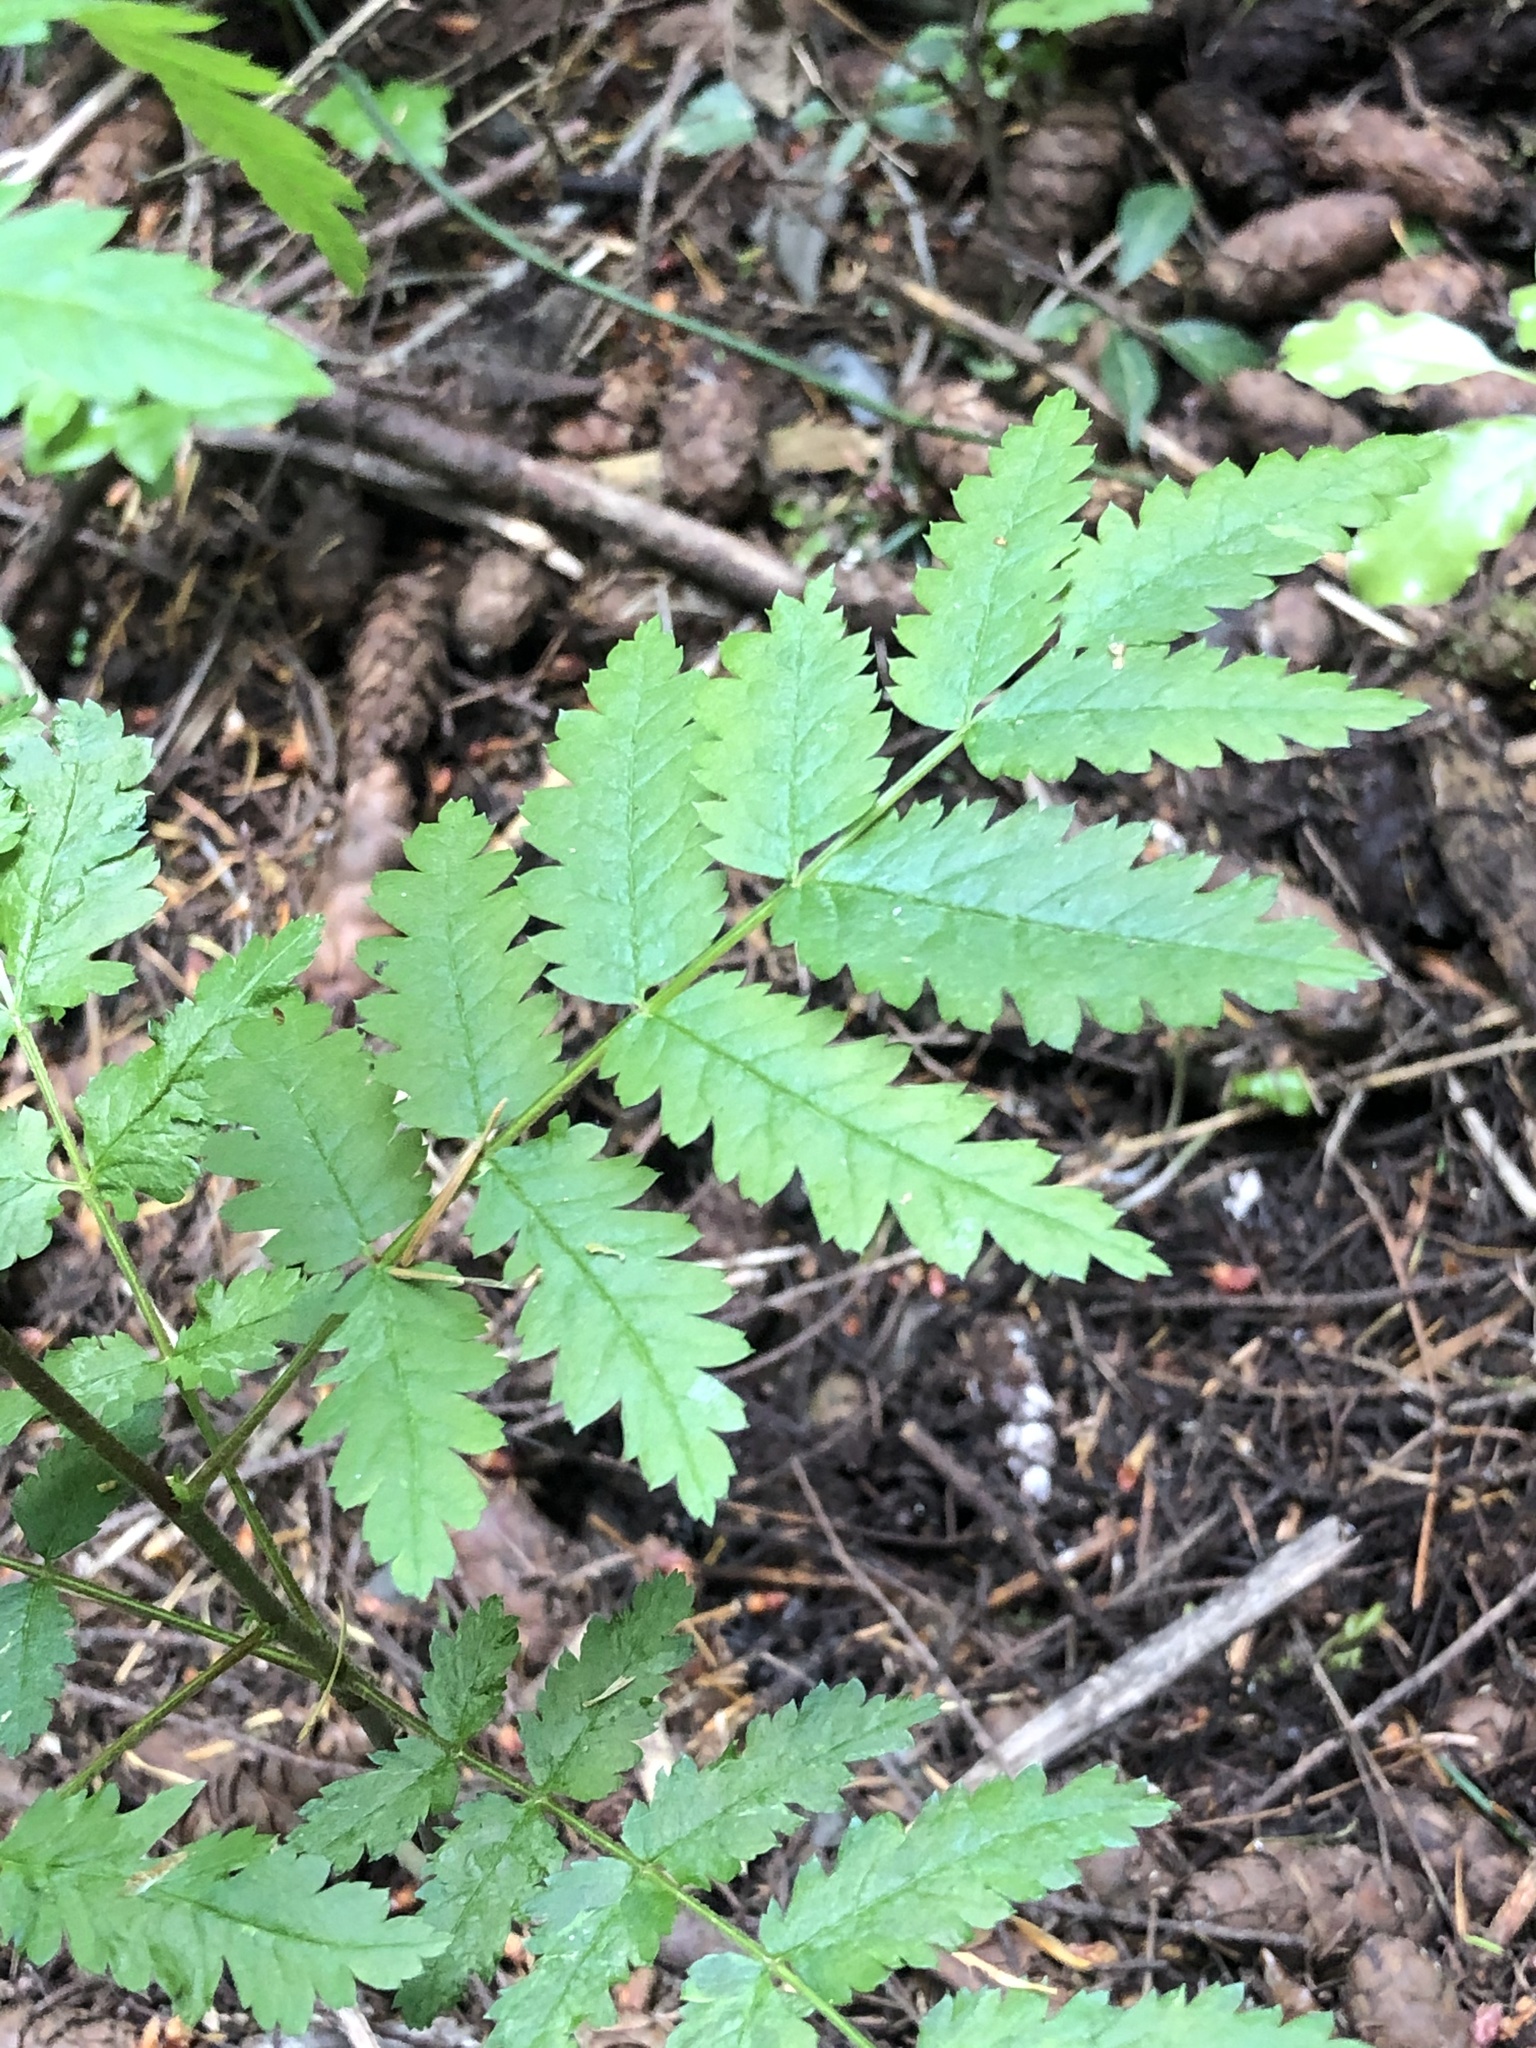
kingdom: Plantae
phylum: Tracheophyta
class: Magnoliopsida
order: Rosales
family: Rosaceae
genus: Sorbus
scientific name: Sorbus aucuparia
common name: Rowan
